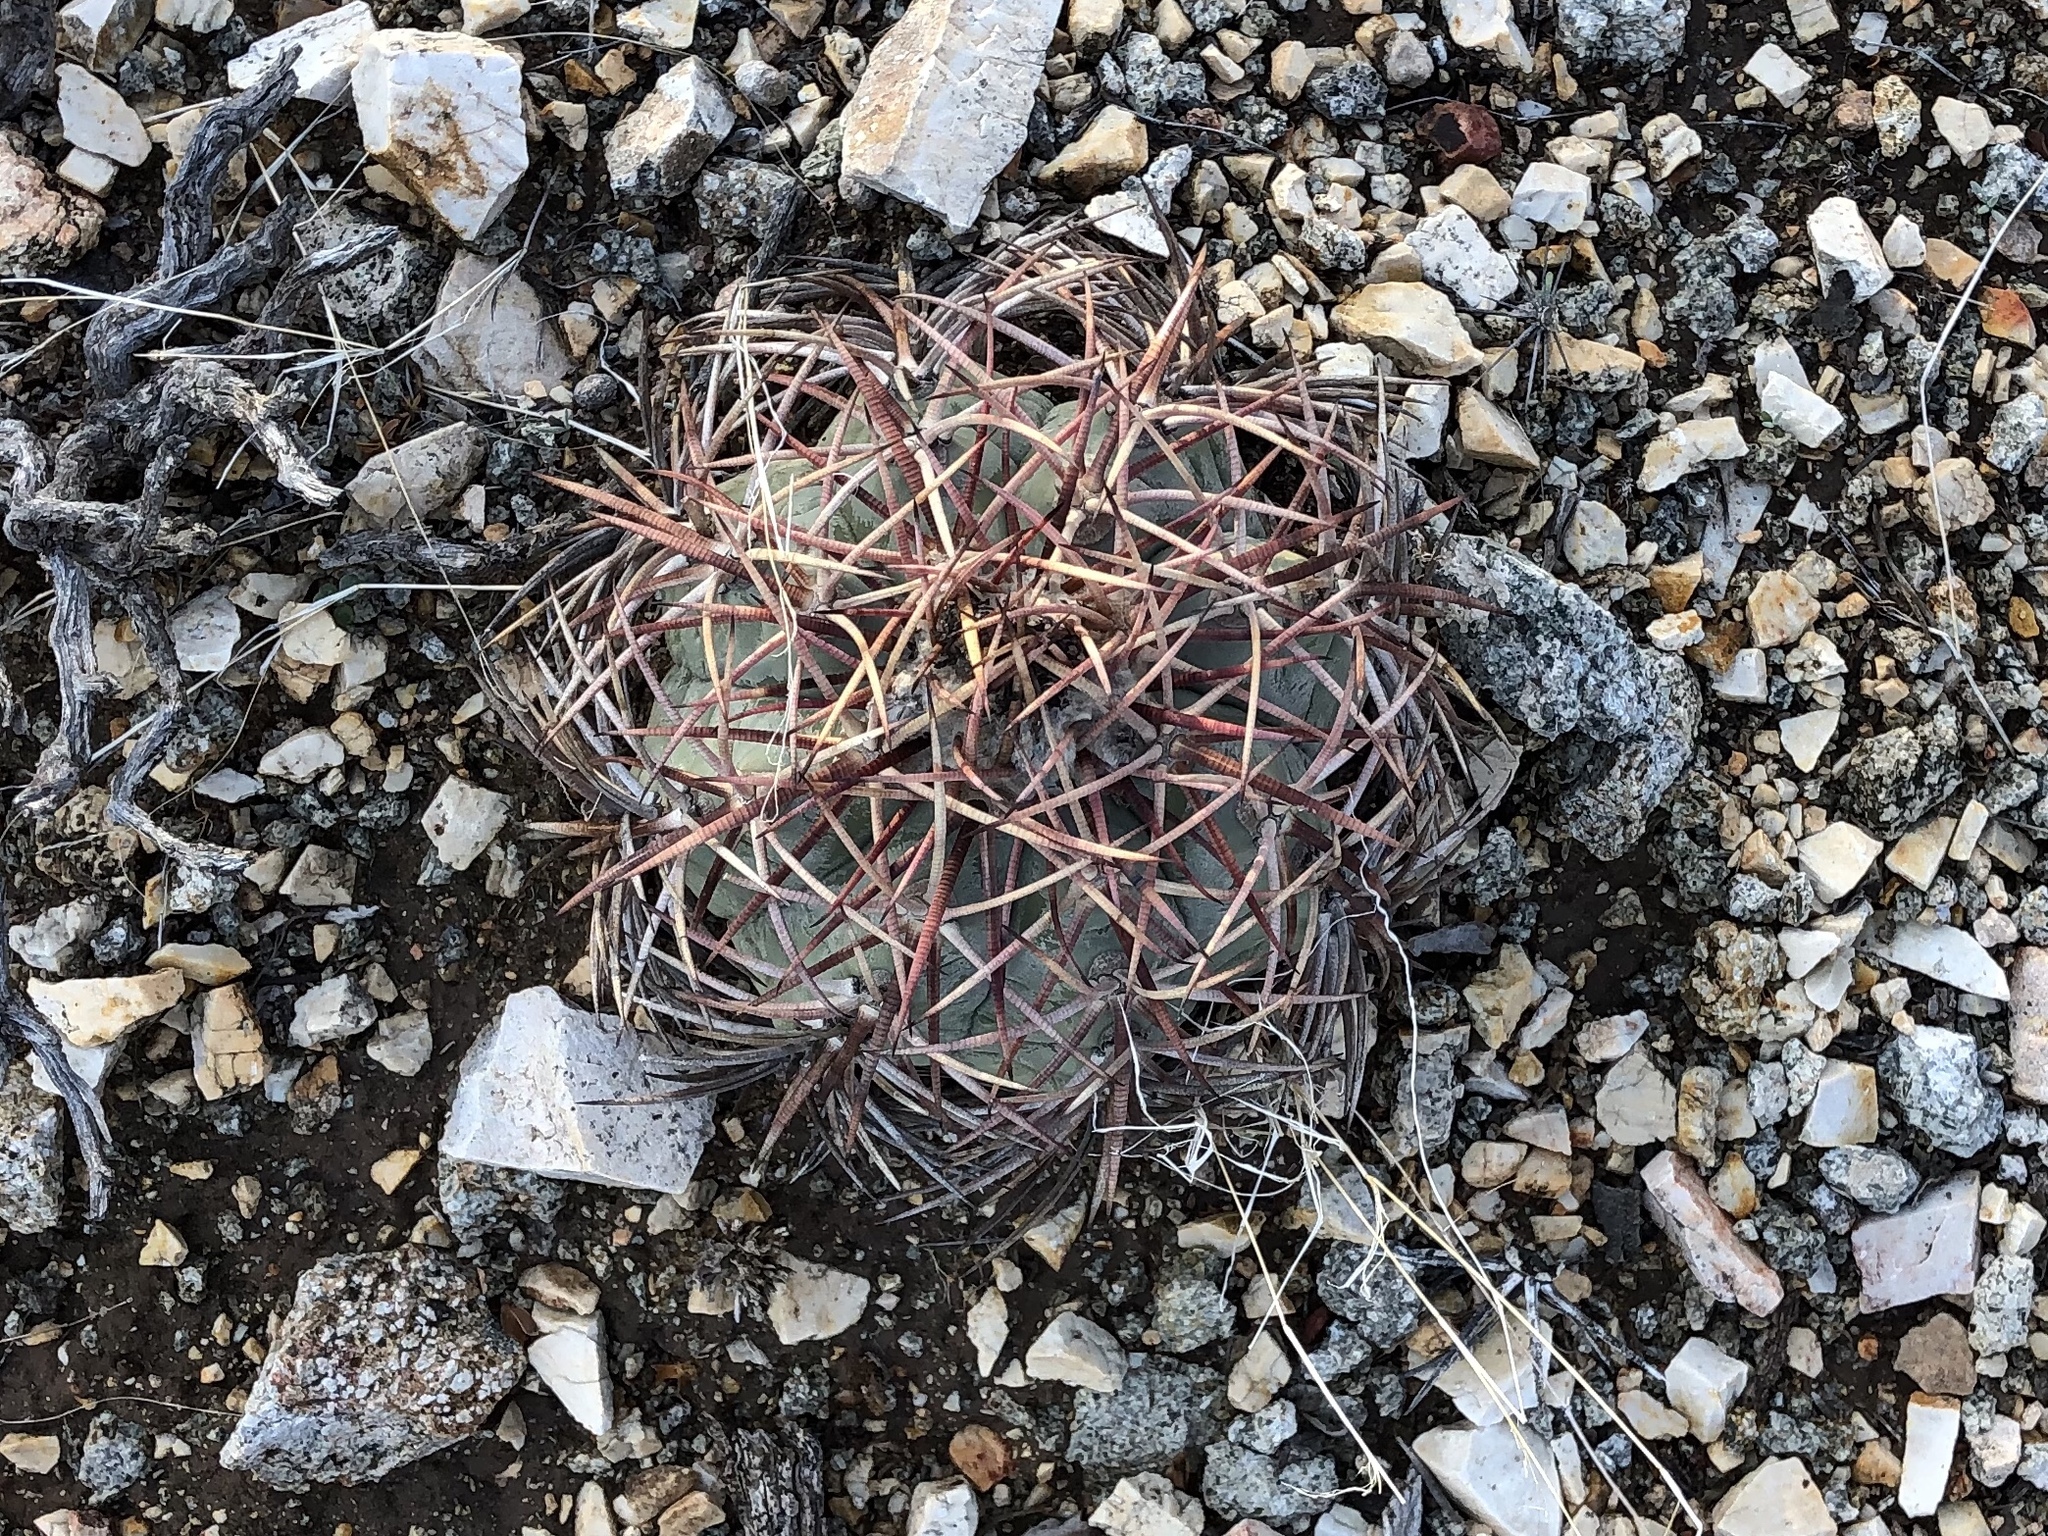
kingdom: Plantae
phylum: Tracheophyta
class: Magnoliopsida
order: Caryophyllales
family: Cactaceae
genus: Echinocactus
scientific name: Echinocactus horizonthalonius
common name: Devilshead
